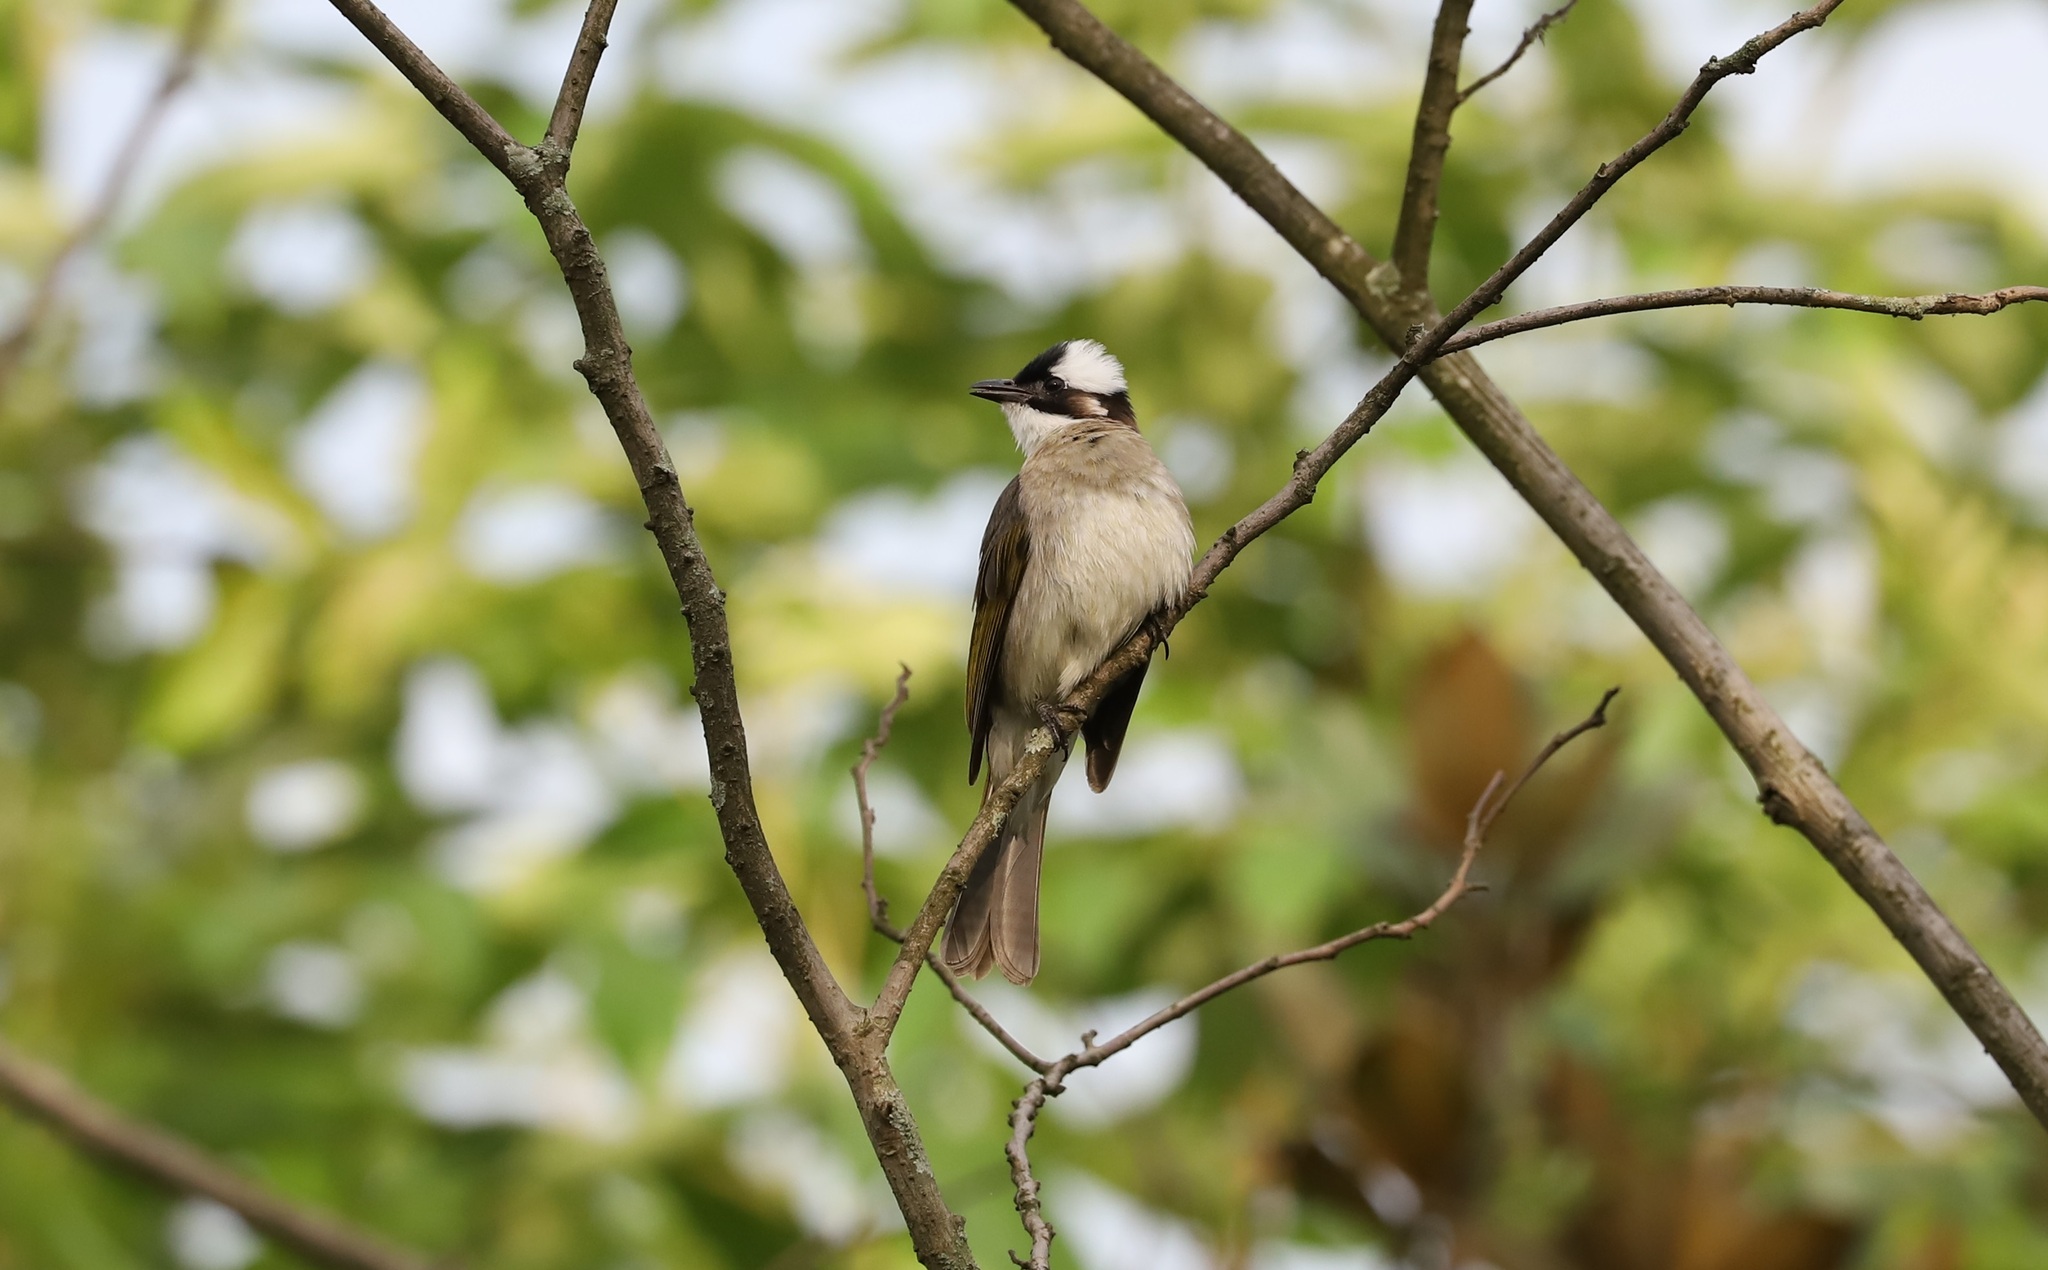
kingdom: Animalia
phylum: Chordata
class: Aves
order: Passeriformes
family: Pycnonotidae
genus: Pycnonotus
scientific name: Pycnonotus sinensis
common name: Light-vented bulbul
